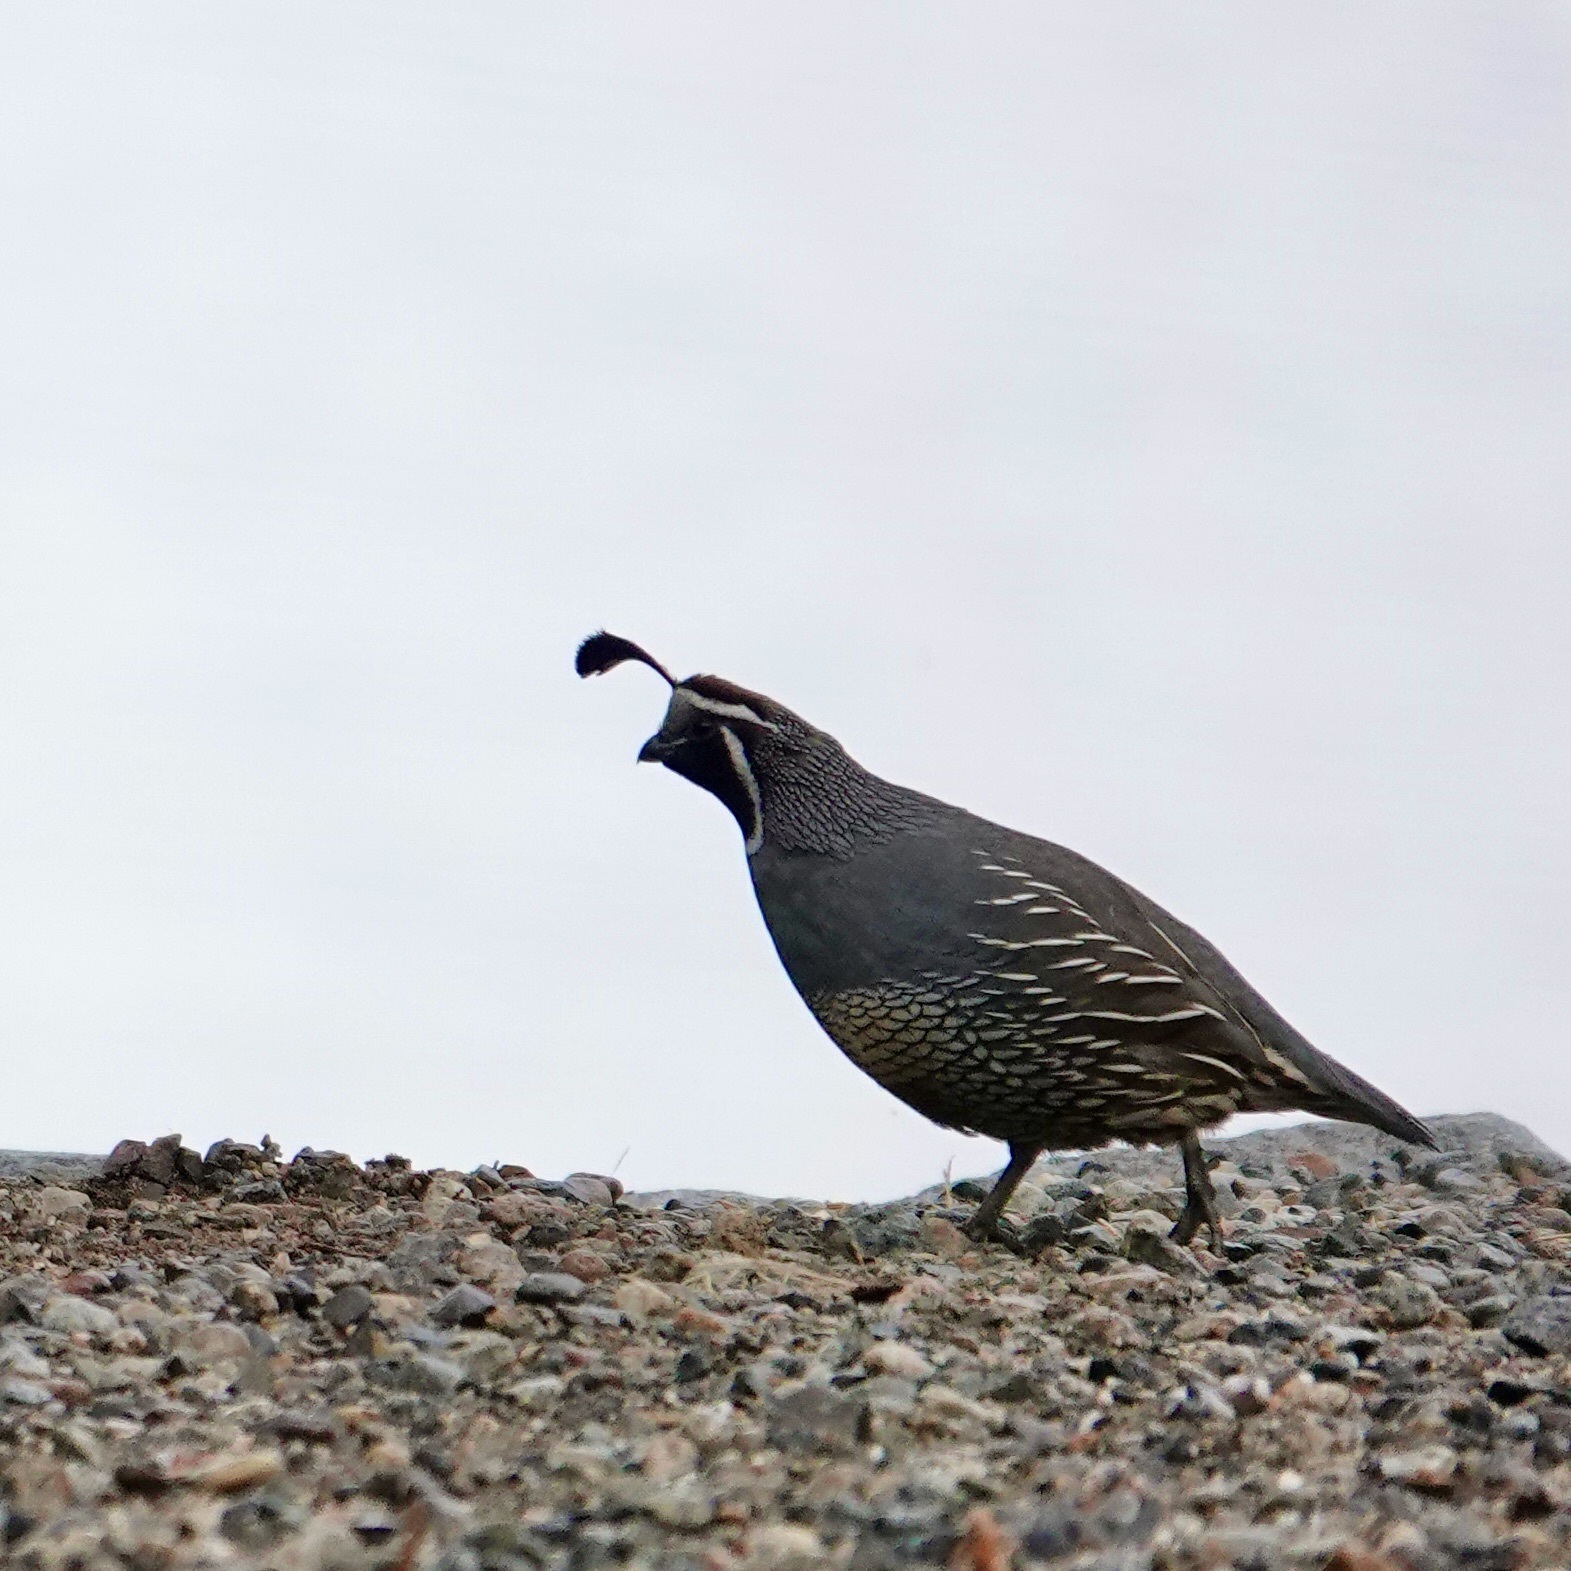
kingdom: Animalia
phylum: Chordata
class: Aves
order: Galliformes
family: Odontophoridae
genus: Callipepla
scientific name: Callipepla californica
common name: California quail
